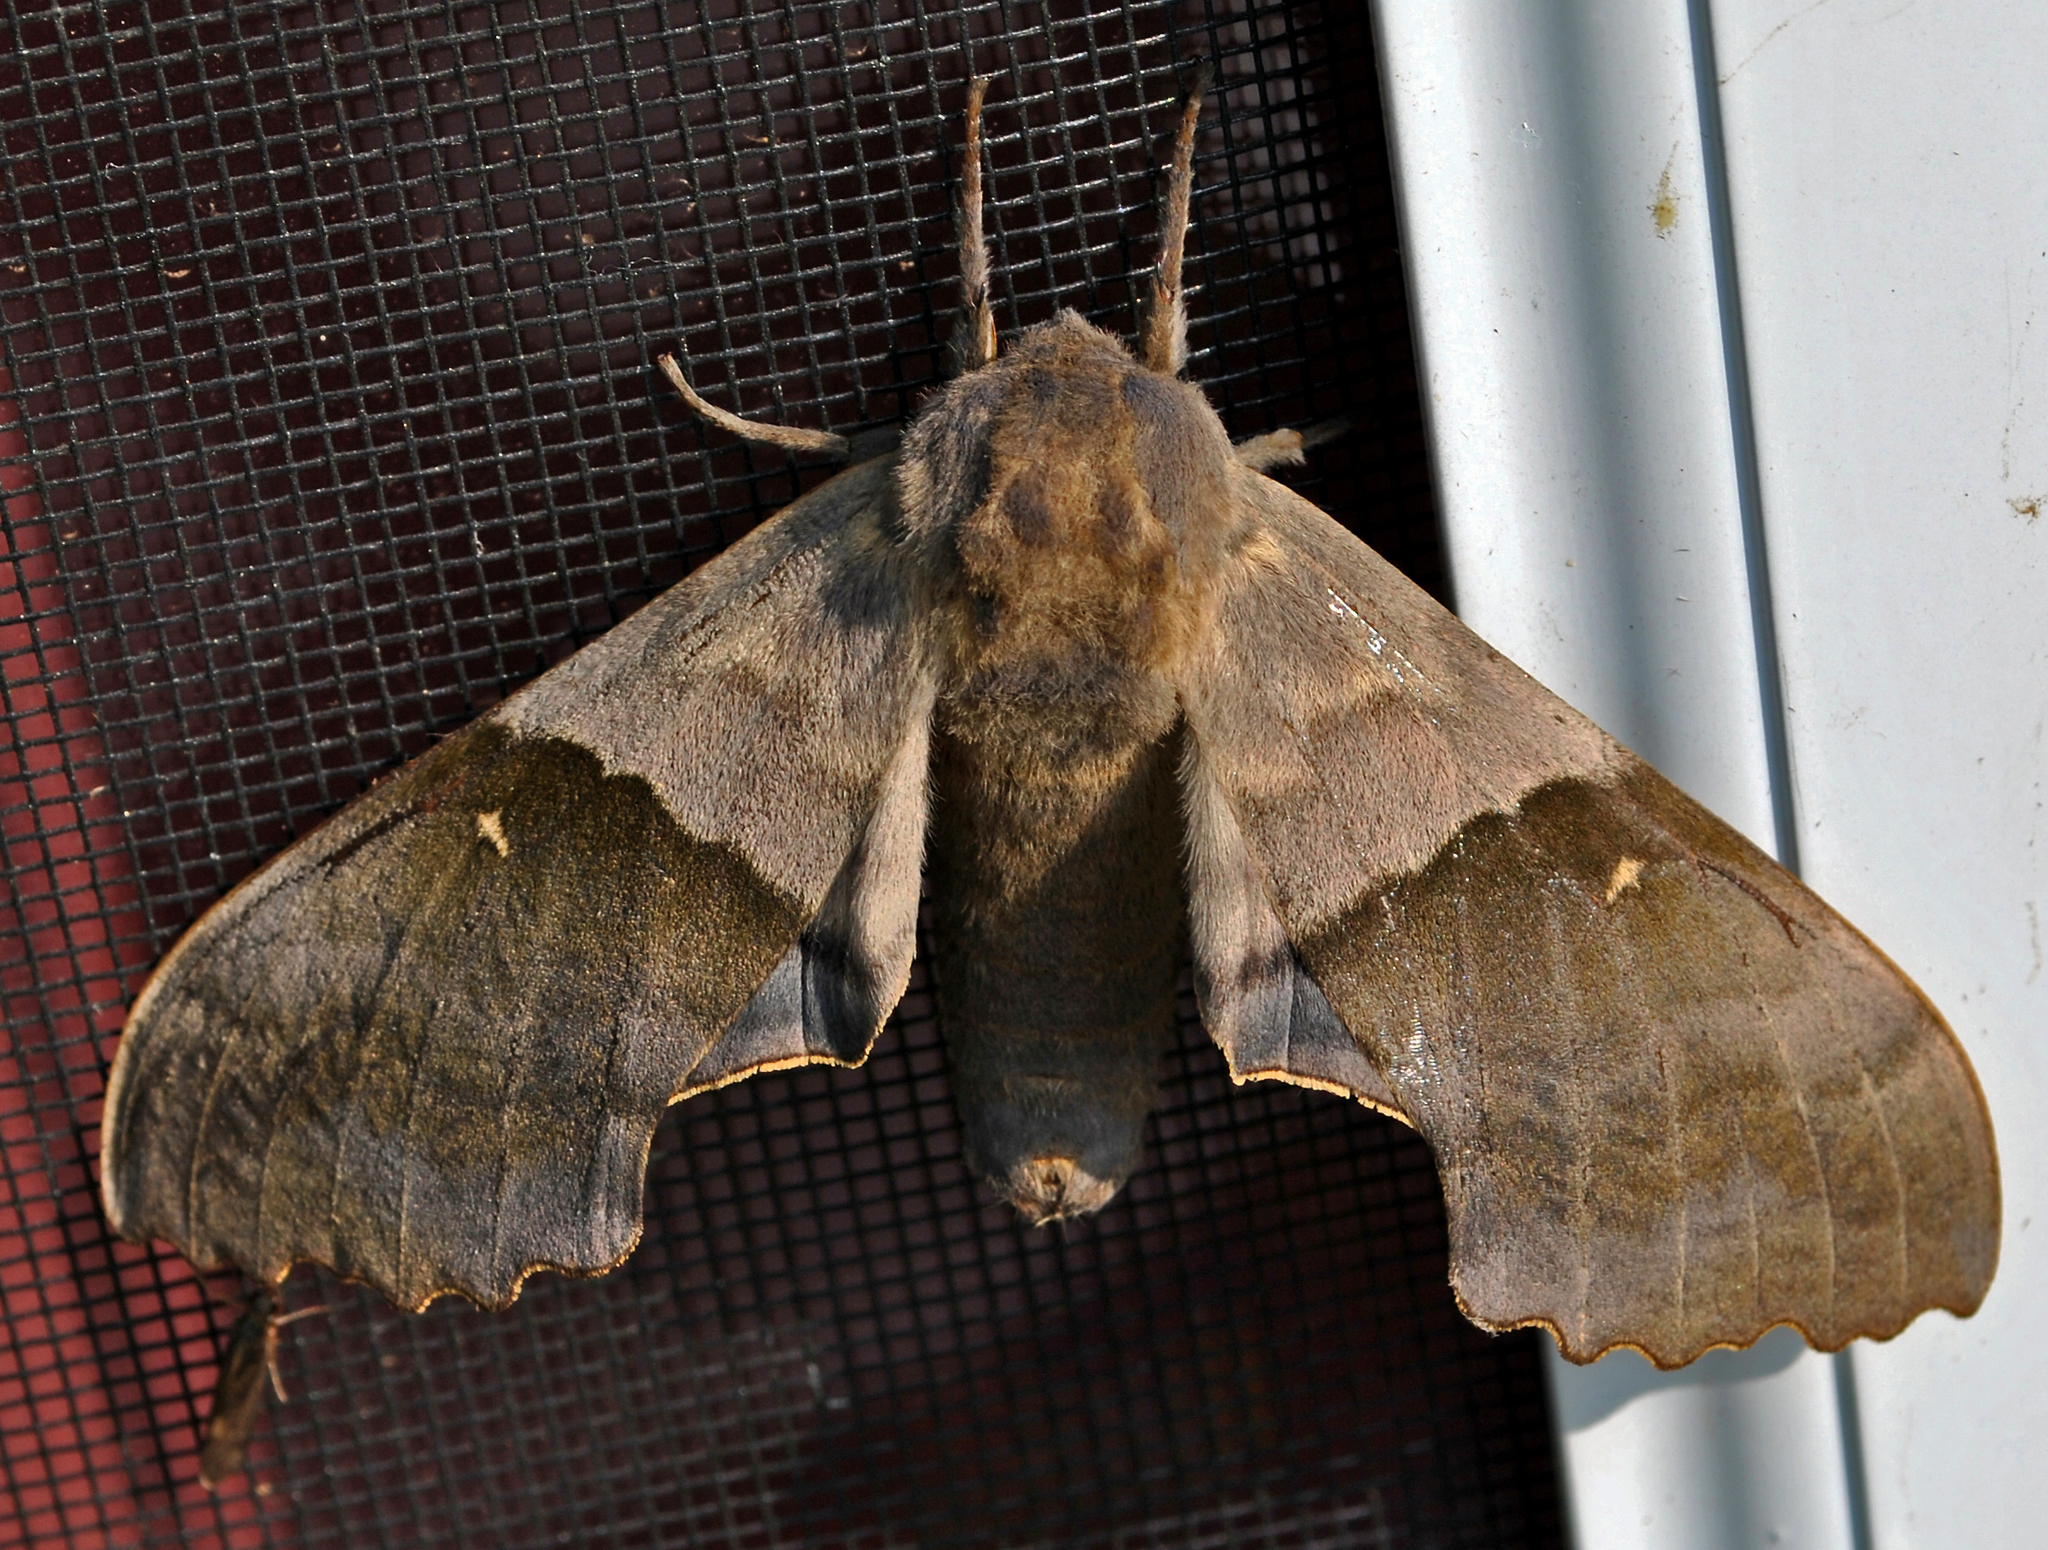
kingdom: Animalia
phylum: Arthropoda
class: Insecta
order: Lepidoptera
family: Sphingidae
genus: Pachysphinx
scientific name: Pachysphinx modesta
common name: Big poplar sphinx
